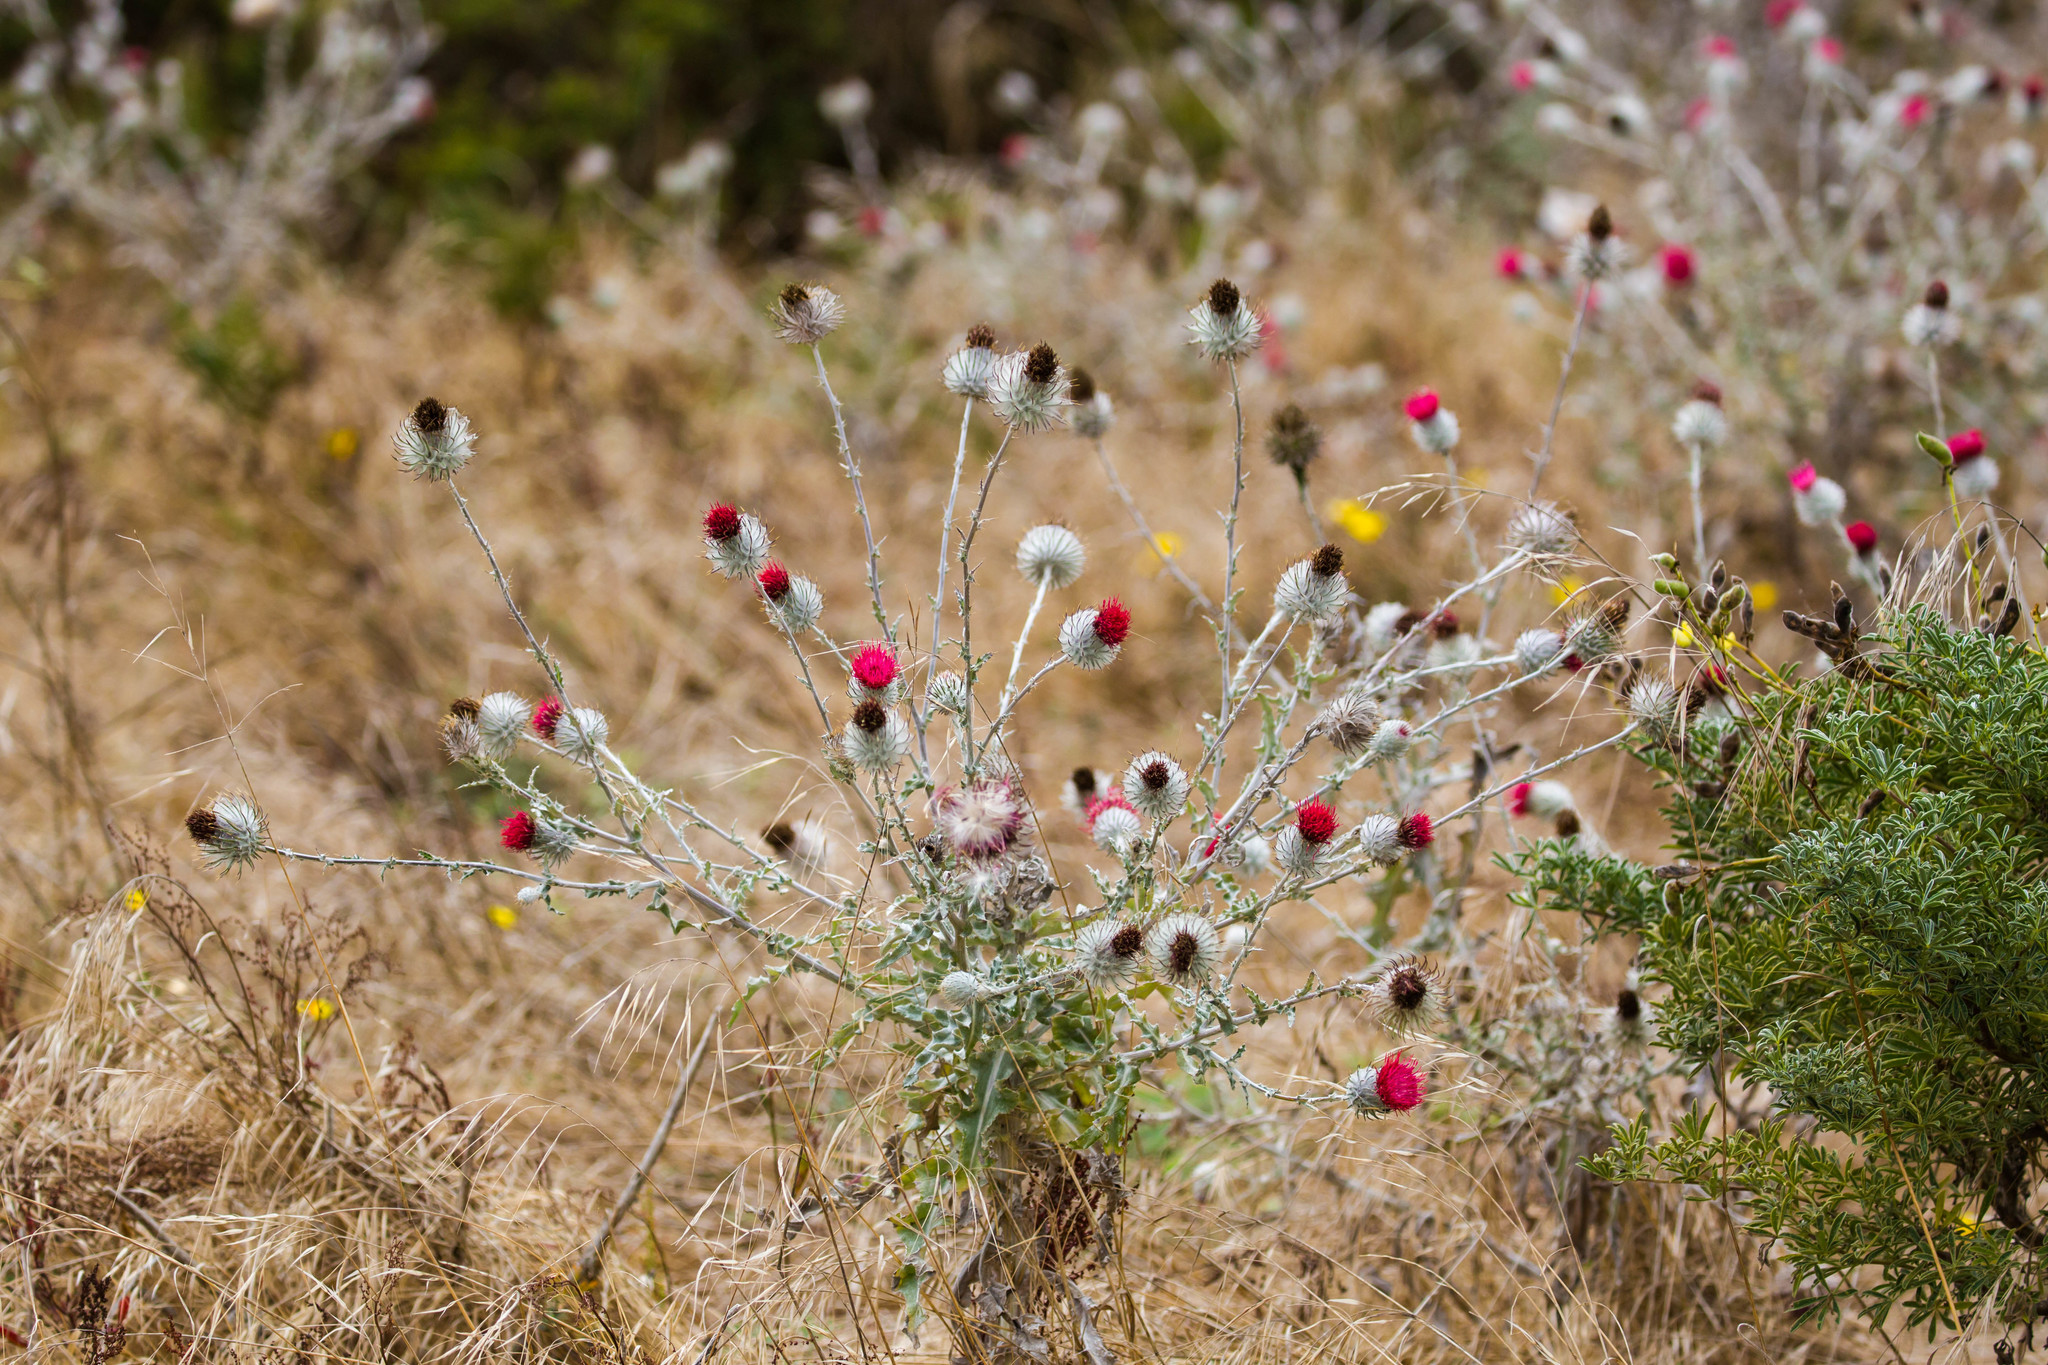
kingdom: Plantae
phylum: Tracheophyta
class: Magnoliopsida
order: Asterales
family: Asteraceae
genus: Cirsium
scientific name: Cirsium occidentale
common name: Western thistle
